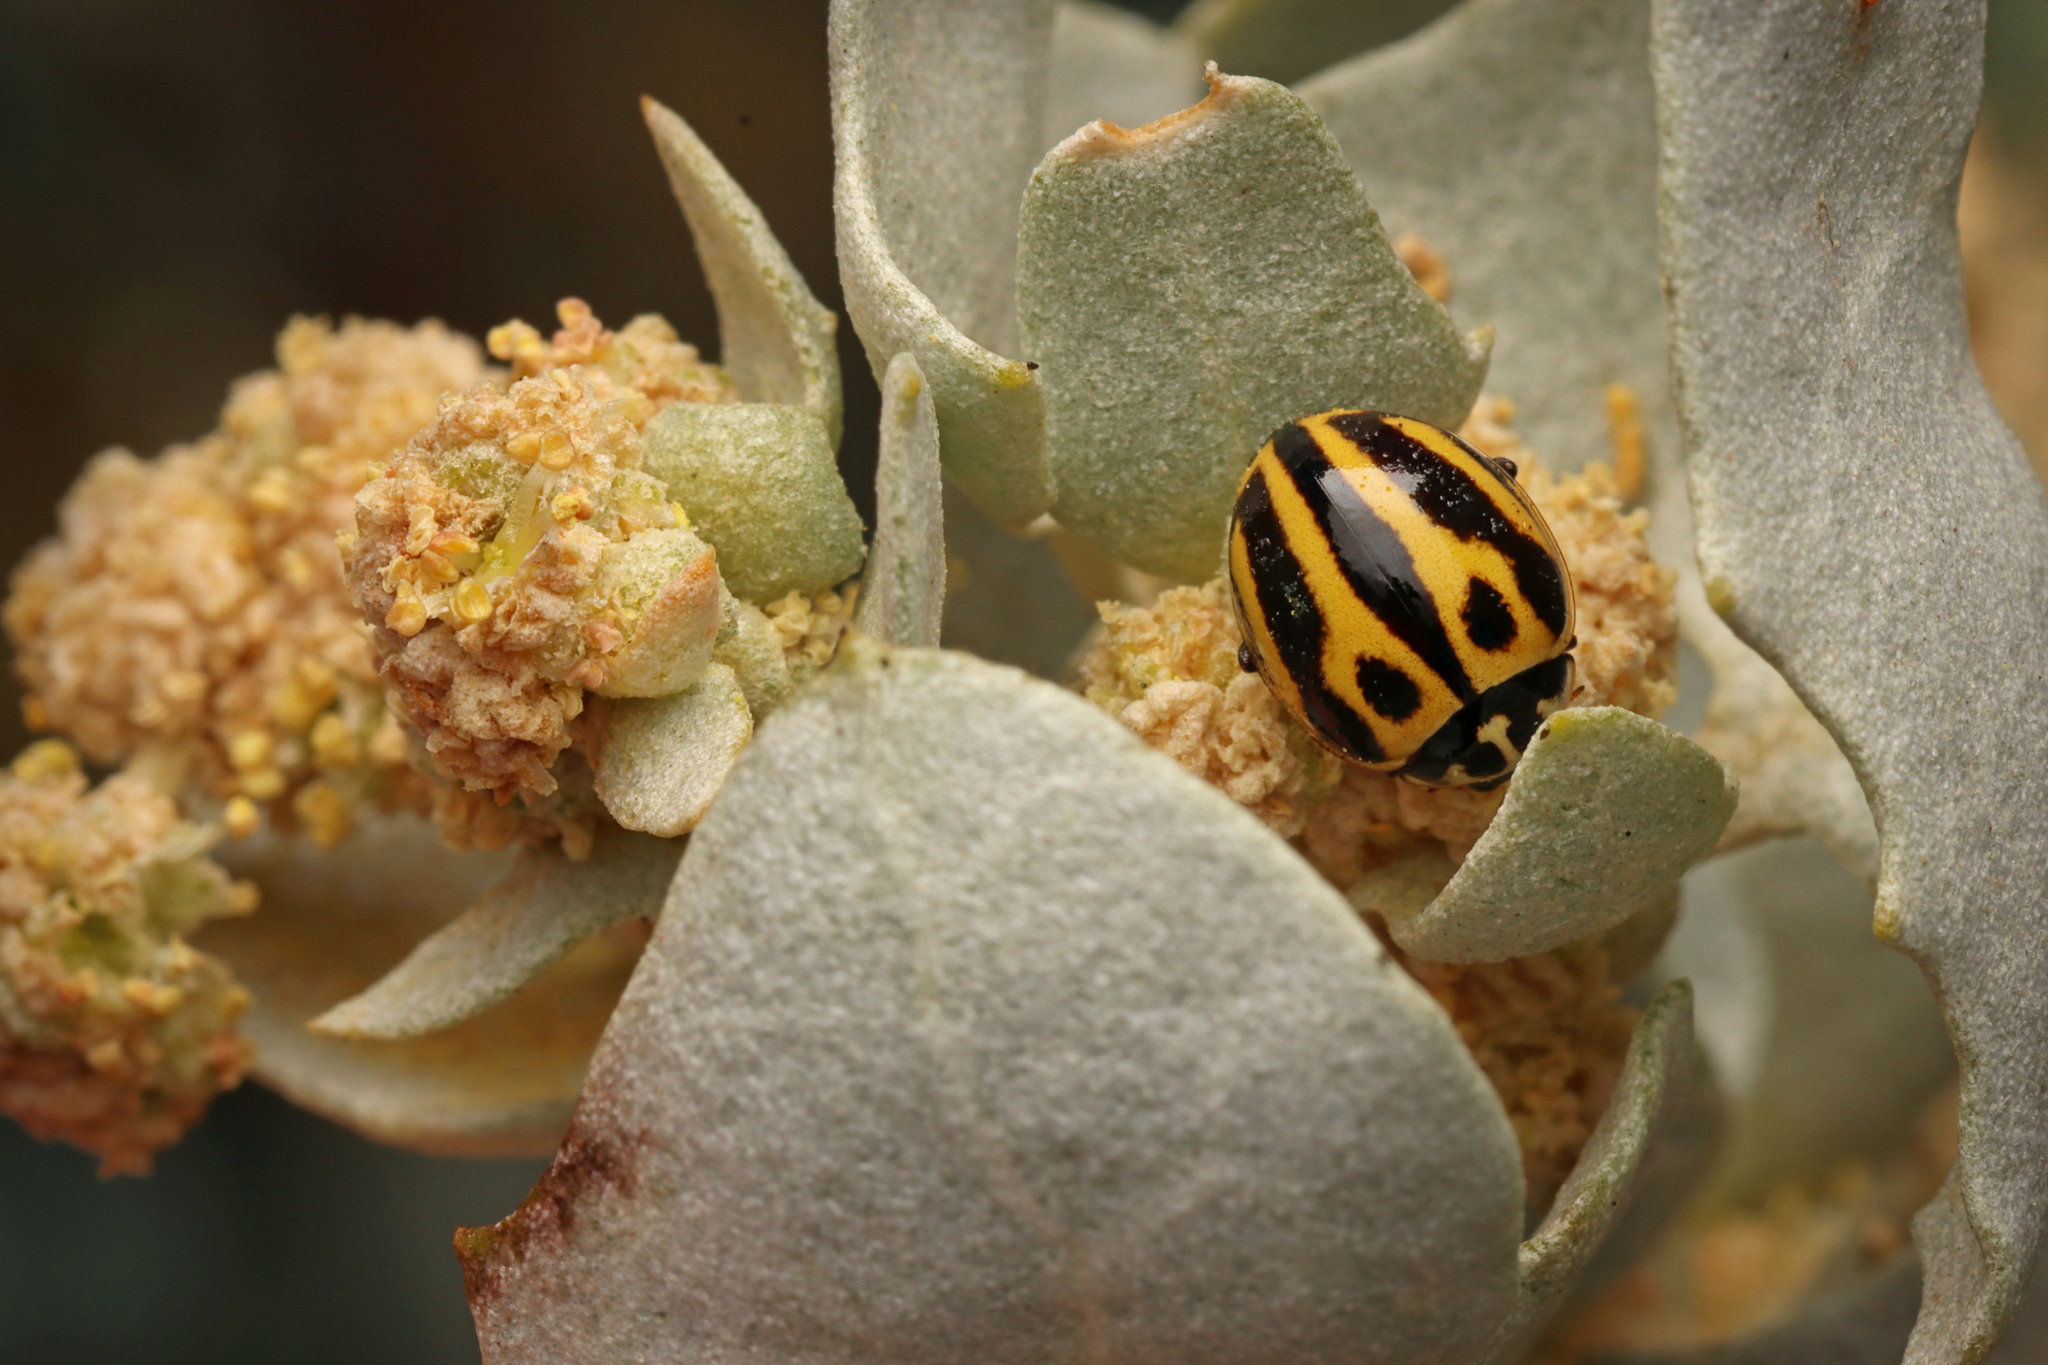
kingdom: Animalia
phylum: Arthropoda
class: Insecta
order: Coleoptera
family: Coccinellidae
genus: Micraspis
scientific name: Micraspis
